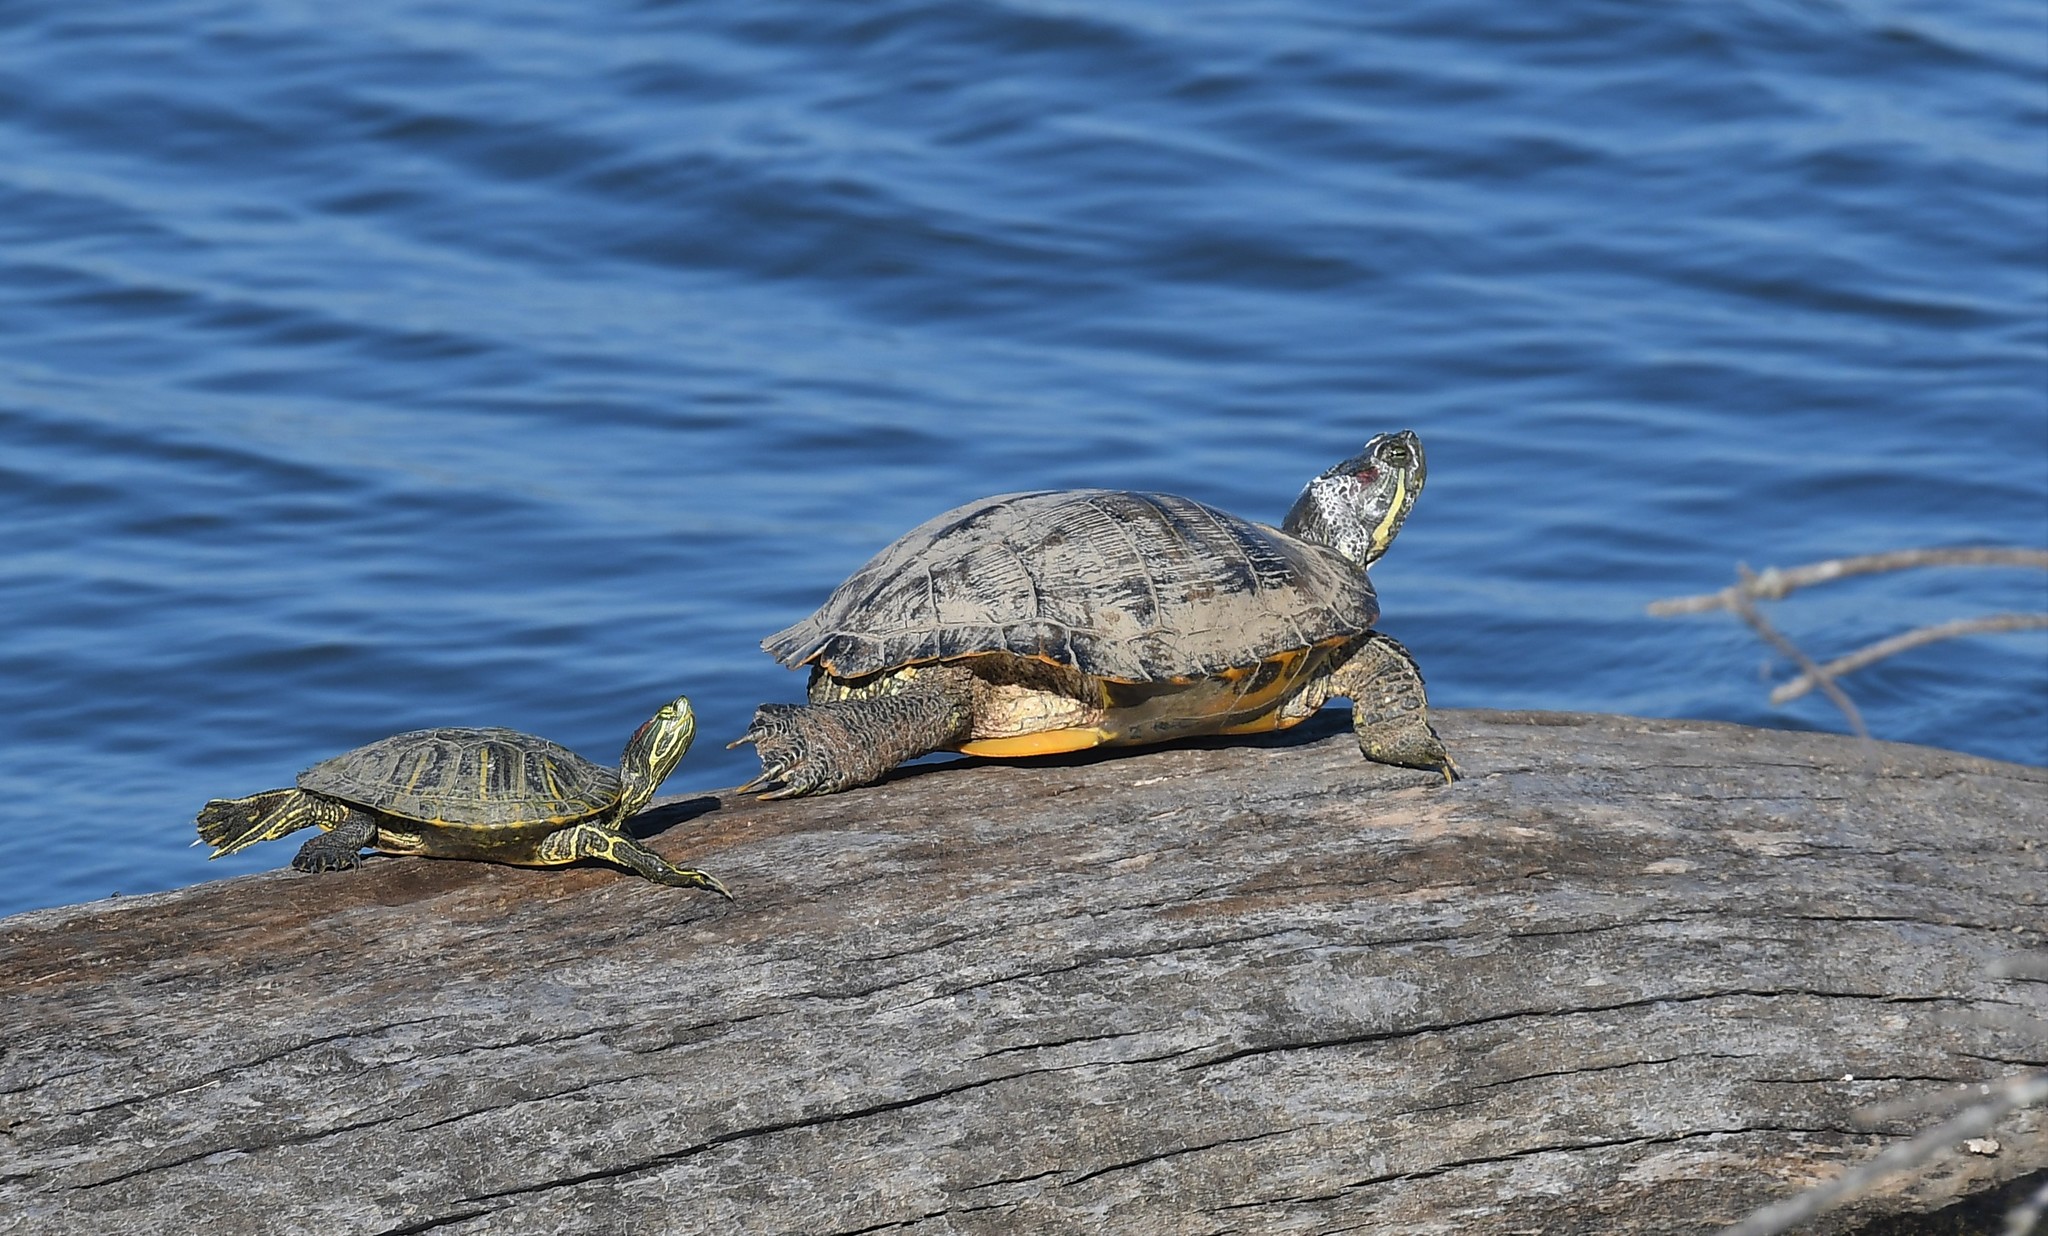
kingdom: Animalia
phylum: Chordata
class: Testudines
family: Emydidae
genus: Trachemys
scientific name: Trachemys scripta
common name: Slider
